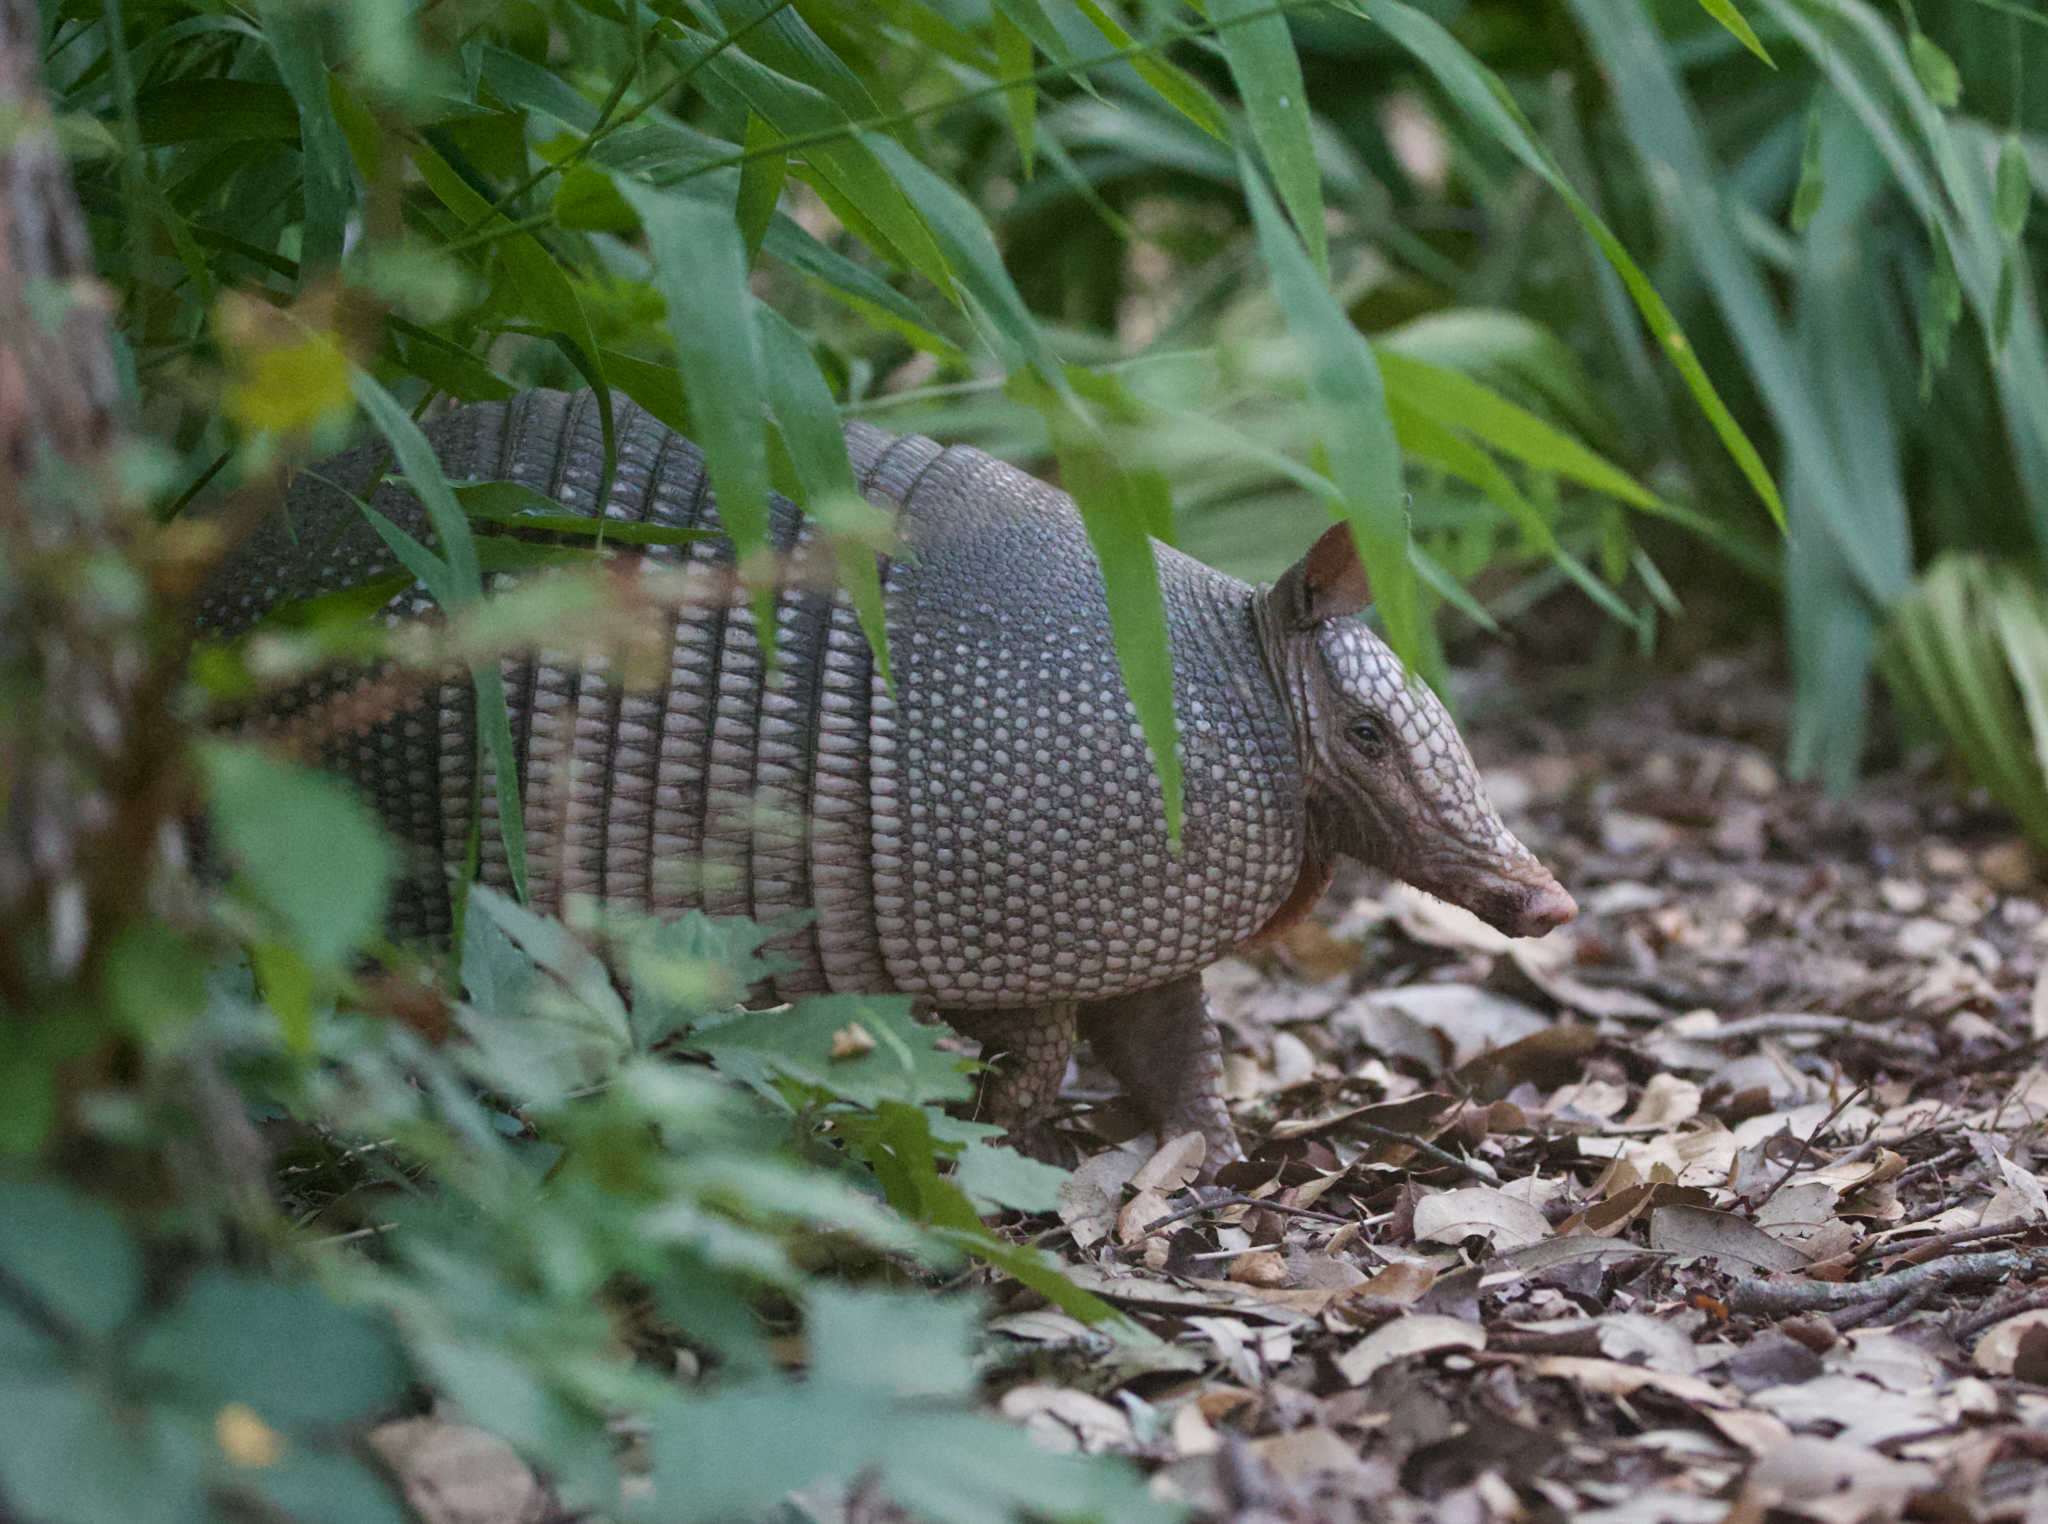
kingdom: Animalia
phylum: Chordata
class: Mammalia
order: Cingulata
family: Dasypodidae
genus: Dasypus
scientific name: Dasypus novemcinctus
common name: Nine-banded armadillo
